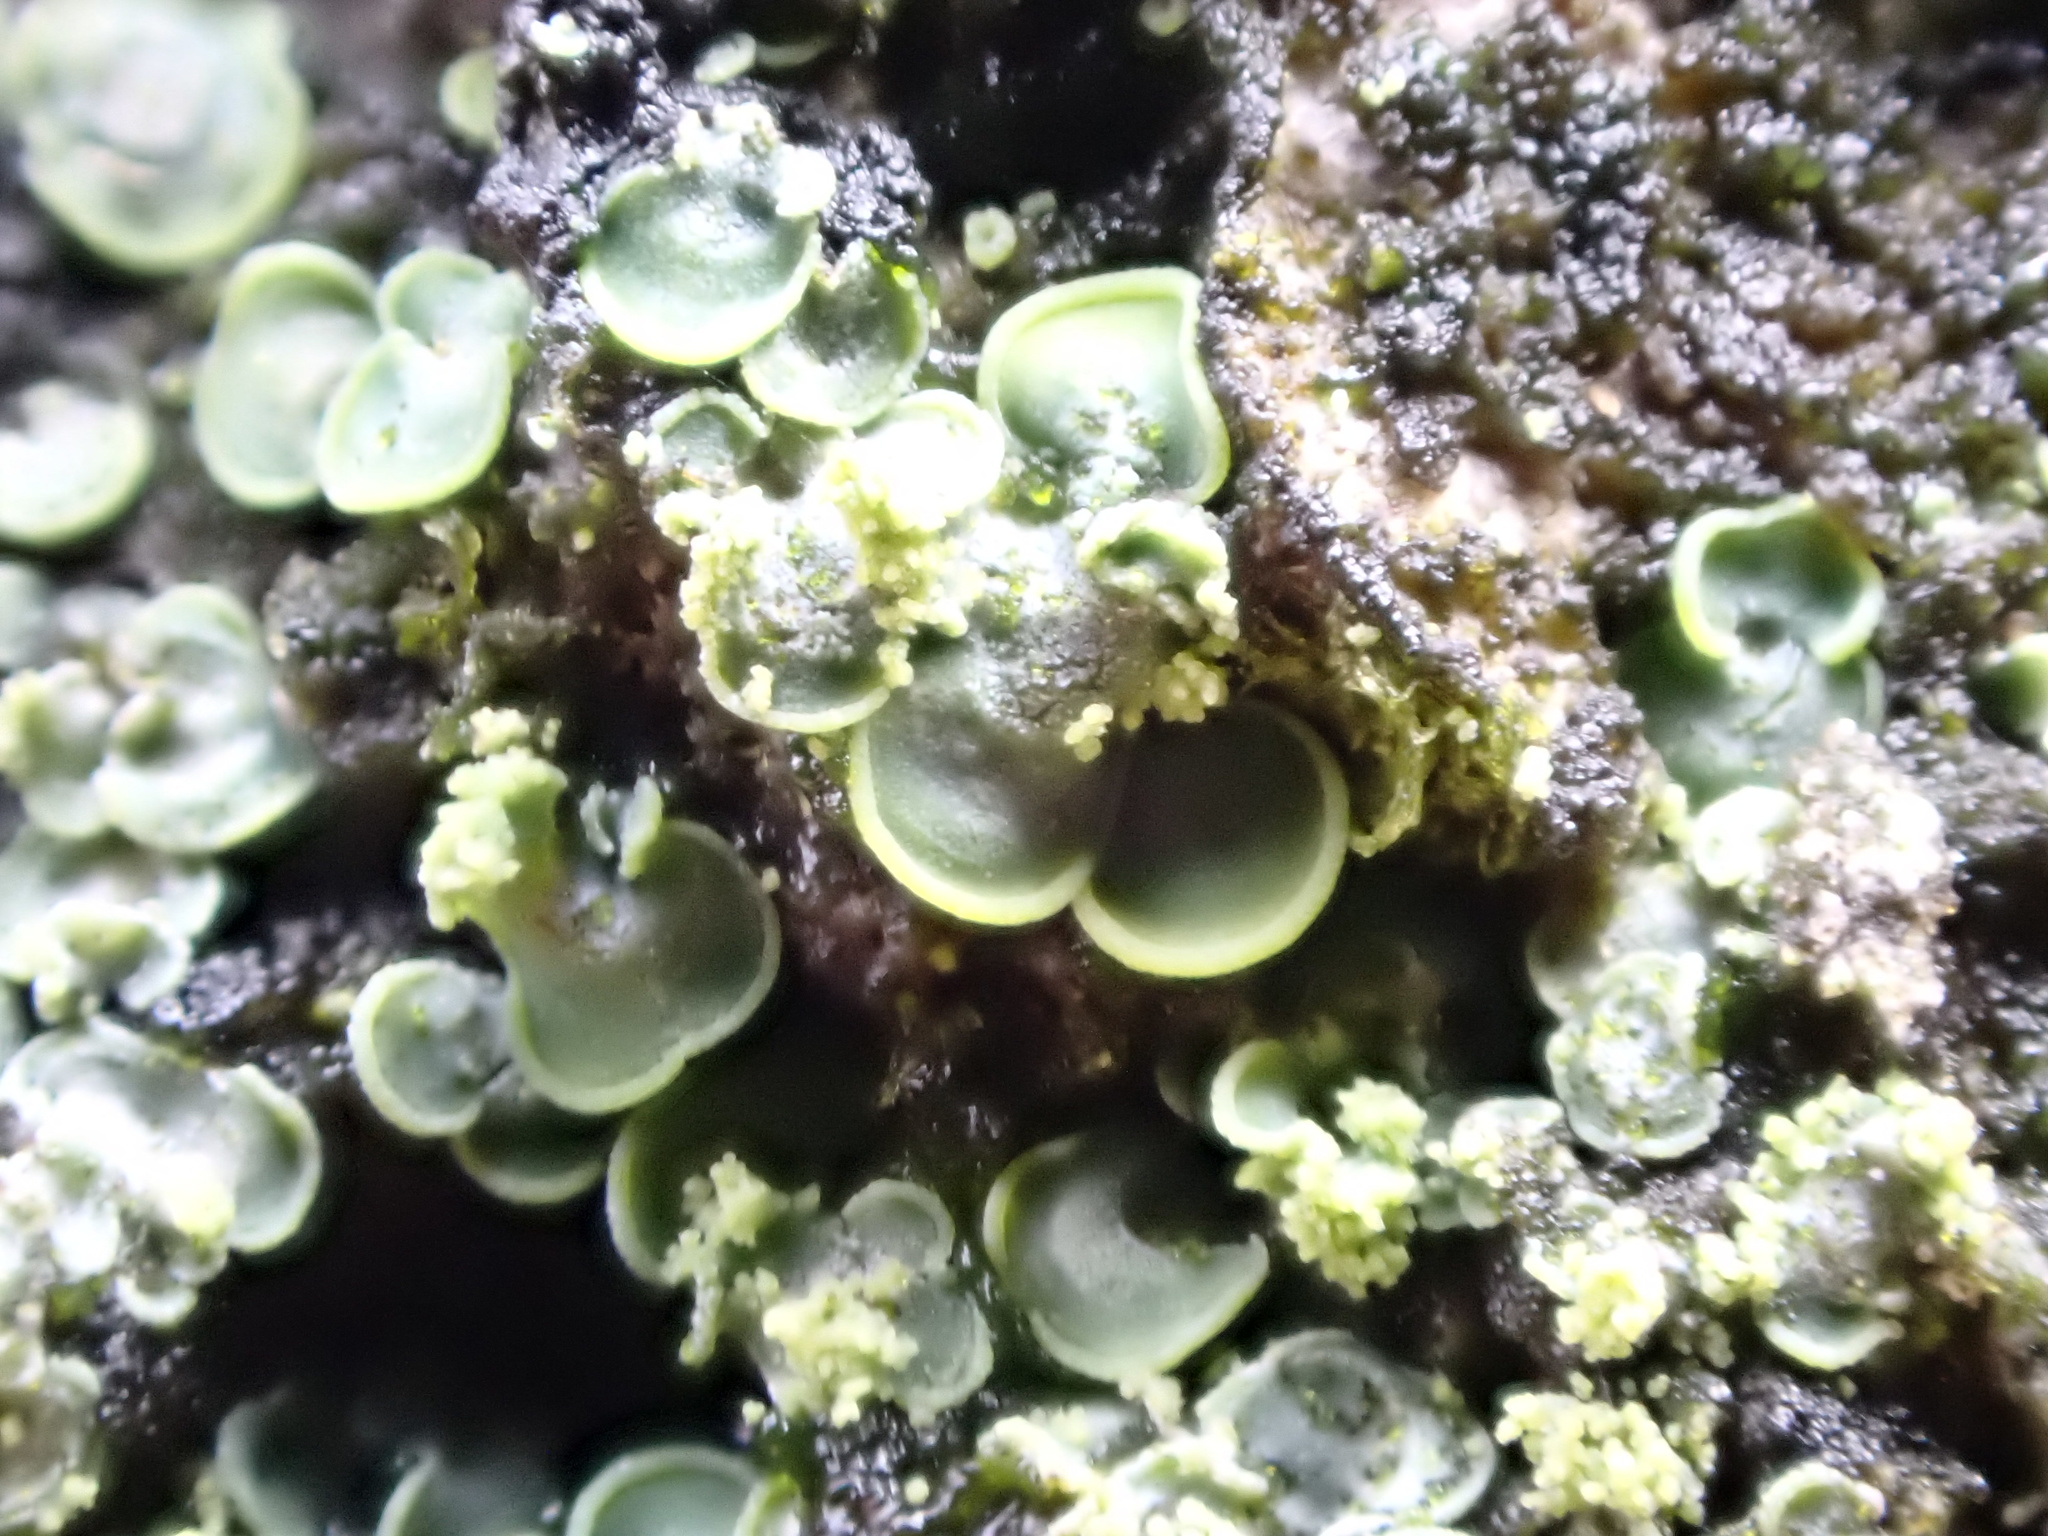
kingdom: Fungi
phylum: Ascomycota
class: Eurotiomycetes
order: Verrucariales
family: Verrucariaceae
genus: Normandina
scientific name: Normandina pulchella
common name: Elf ears lichen
